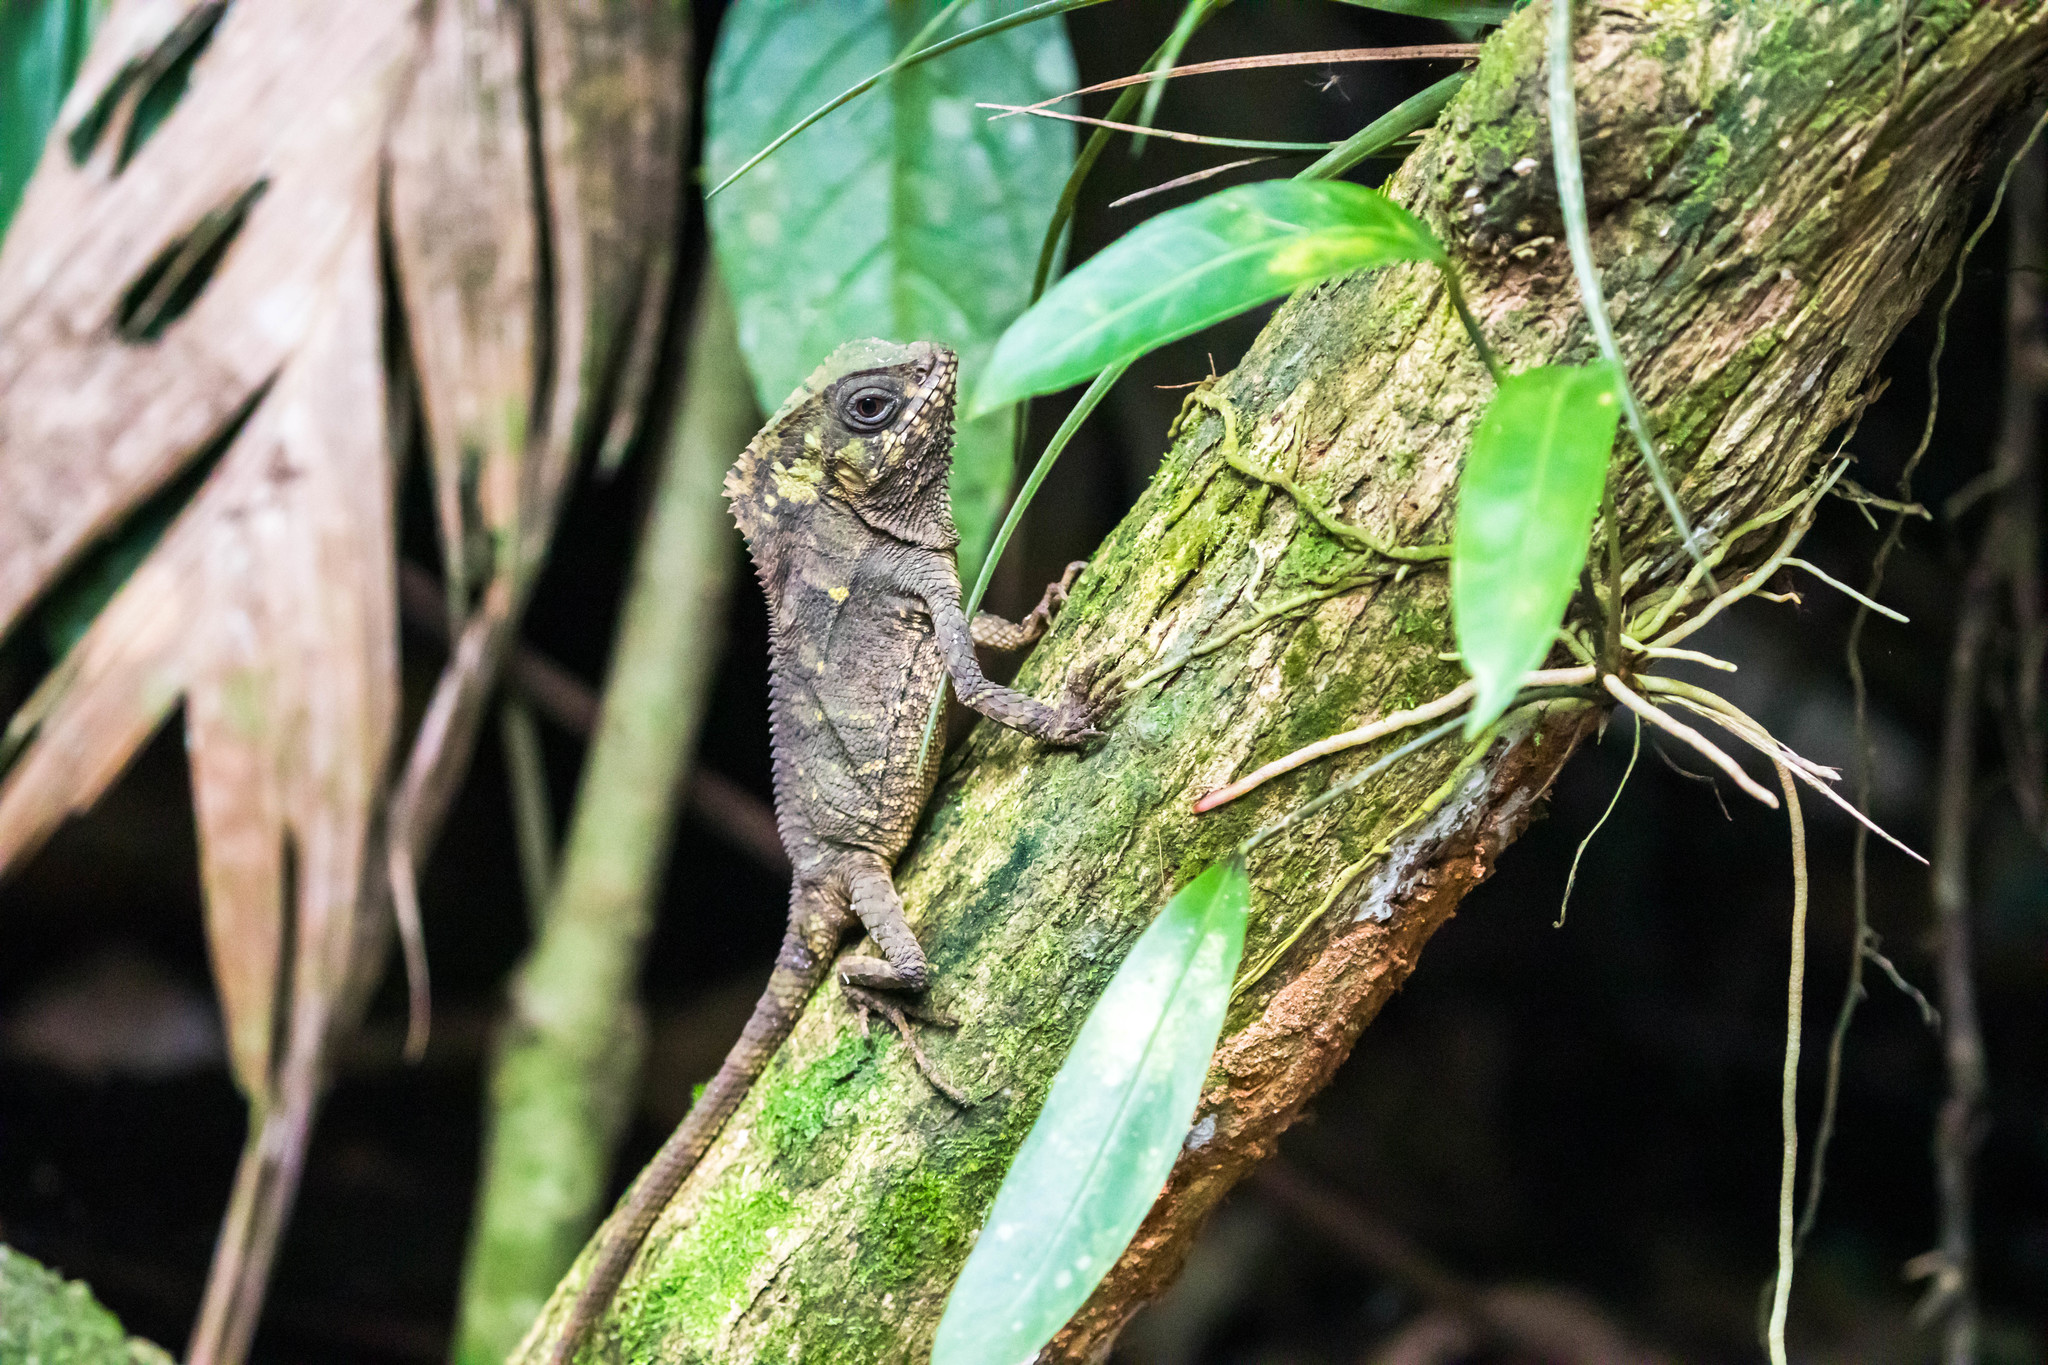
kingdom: Animalia
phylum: Chordata
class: Squamata
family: Corytophanidae
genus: Corytophanes
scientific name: Corytophanes cristatus
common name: Smooth helmeted iguana
